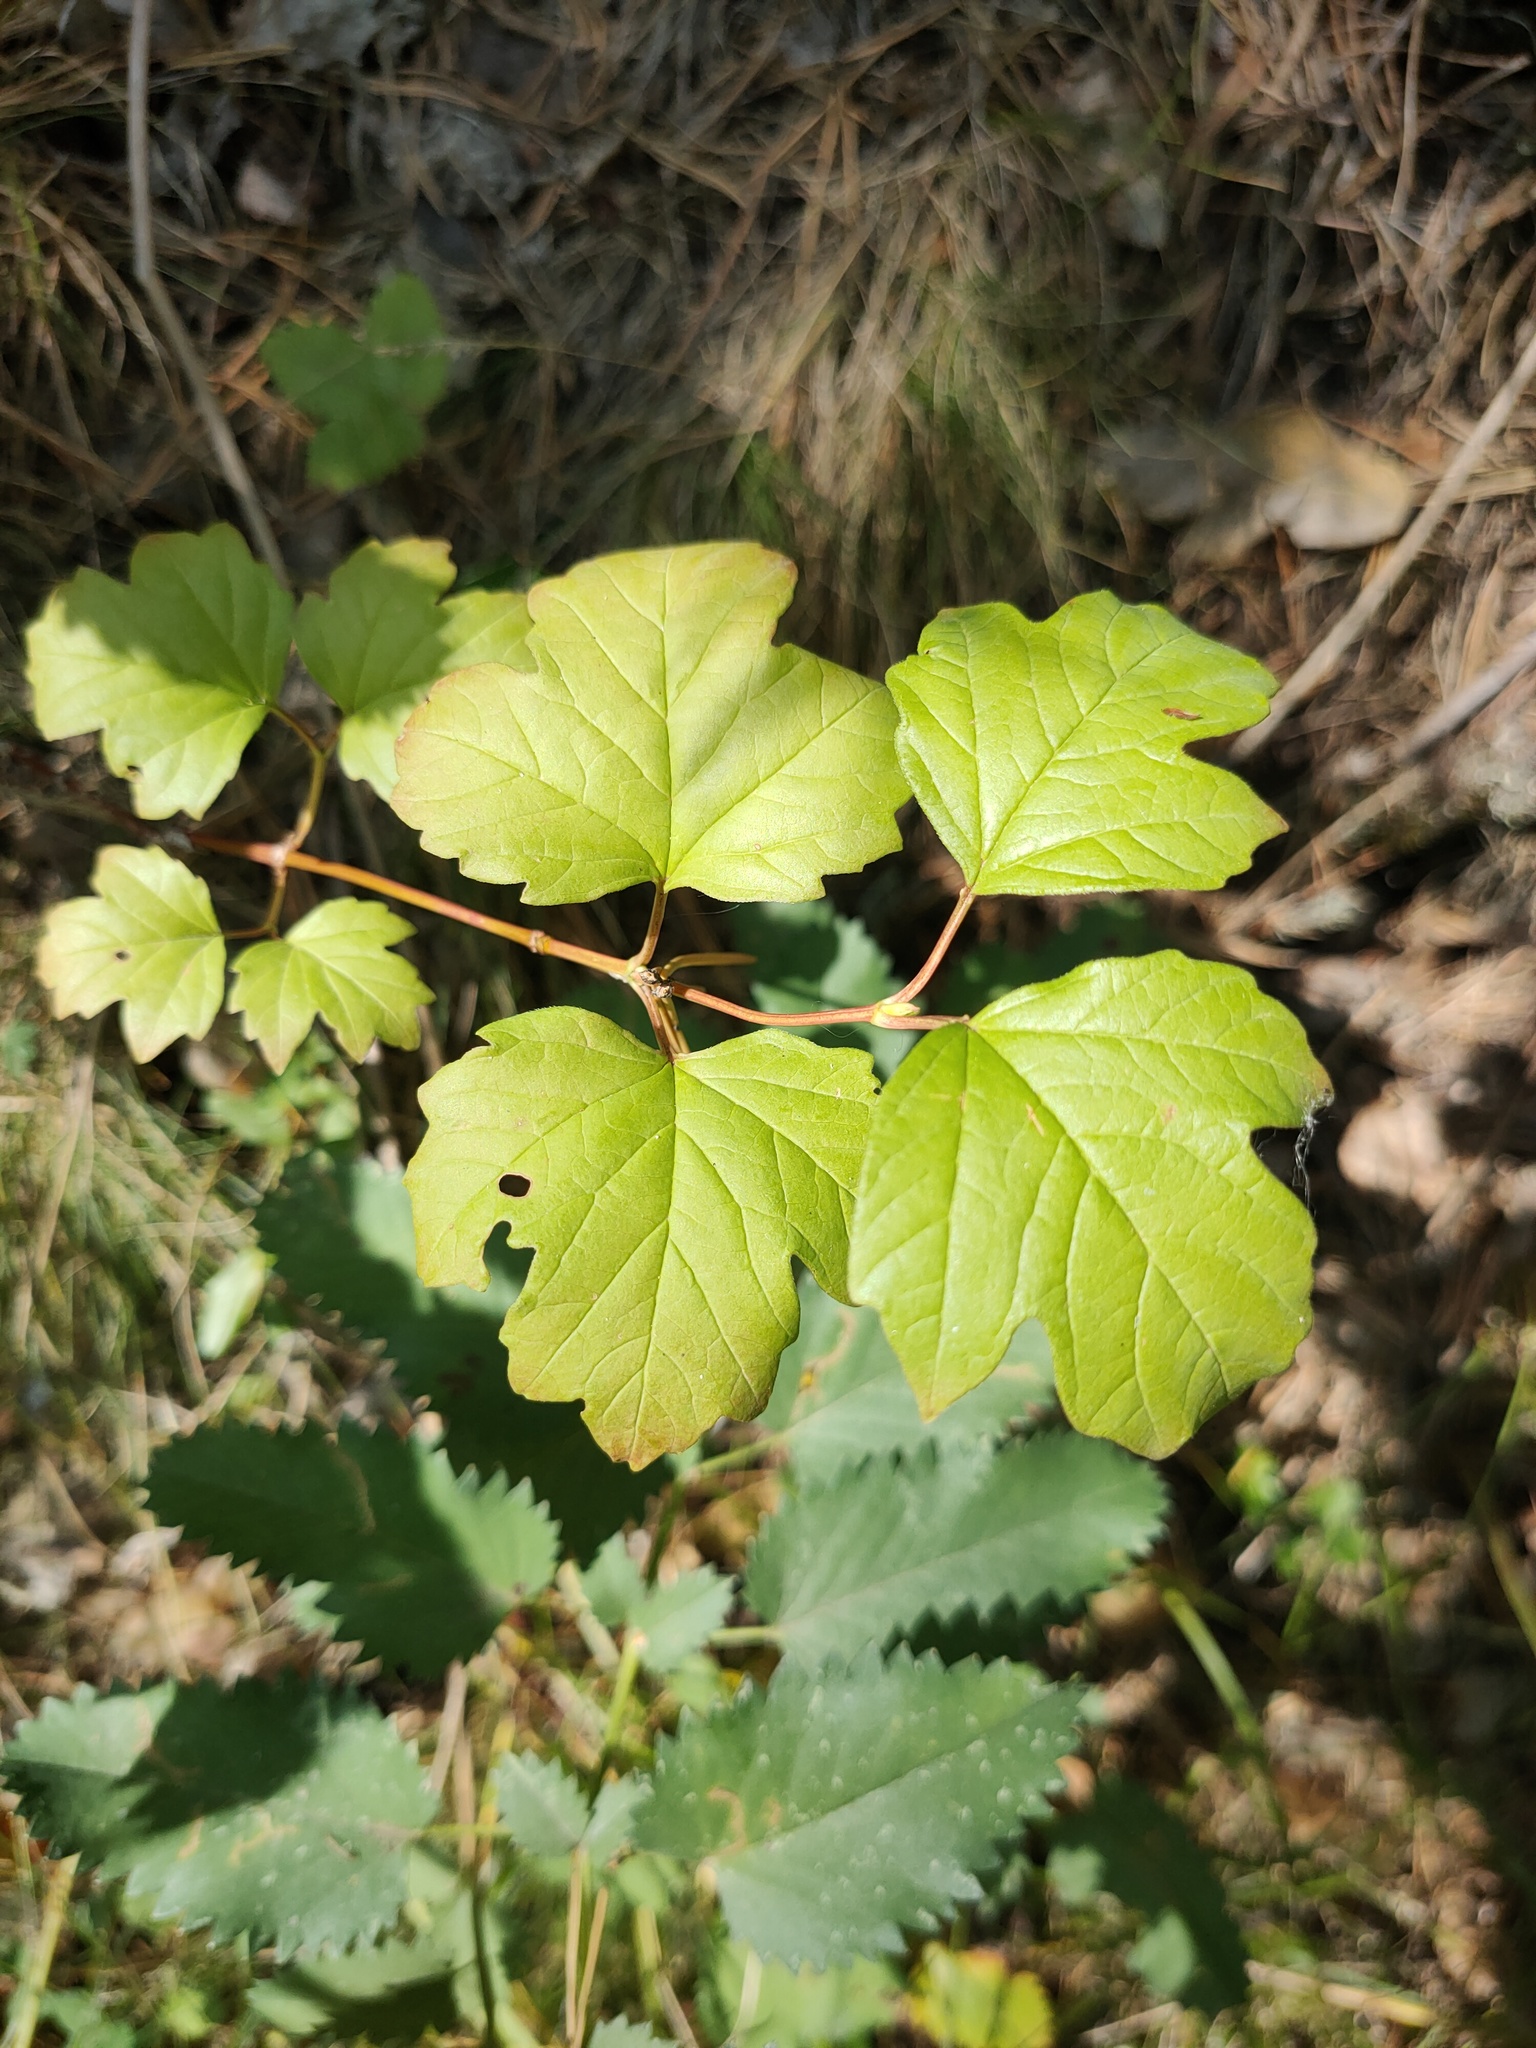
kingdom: Plantae
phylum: Tracheophyta
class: Magnoliopsida
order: Dipsacales
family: Viburnaceae
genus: Viburnum
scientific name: Viburnum opulus
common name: Guelder-rose
